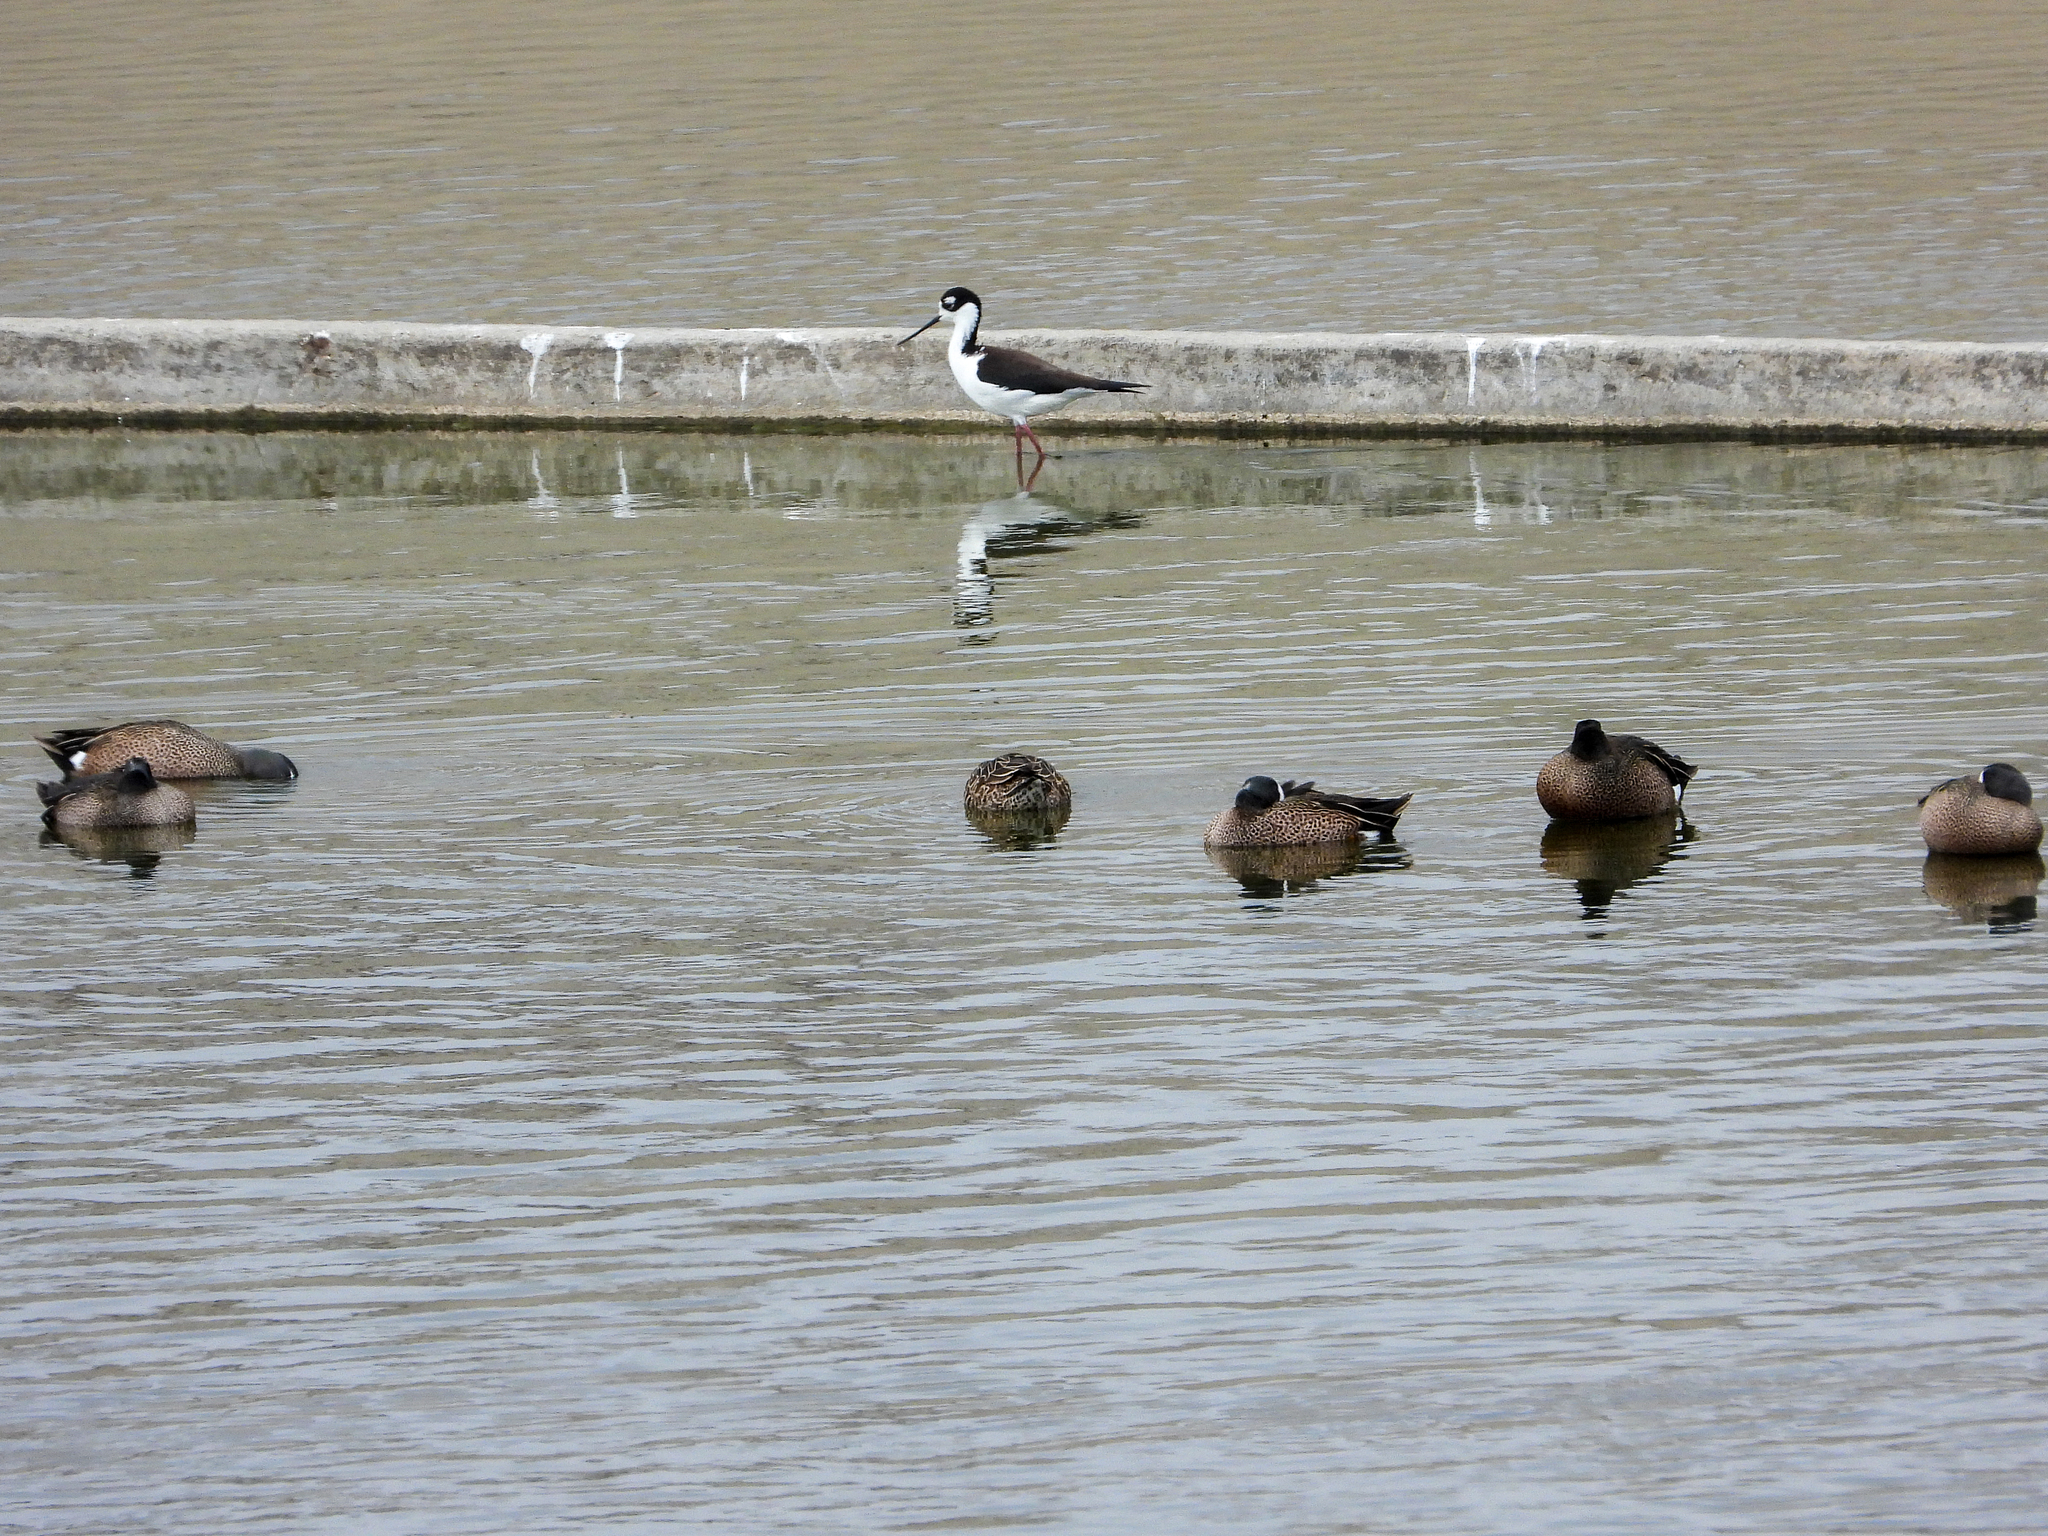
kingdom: Animalia
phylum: Chordata
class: Aves
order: Charadriiformes
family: Recurvirostridae
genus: Himantopus
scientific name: Himantopus mexicanus
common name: Black-necked stilt
